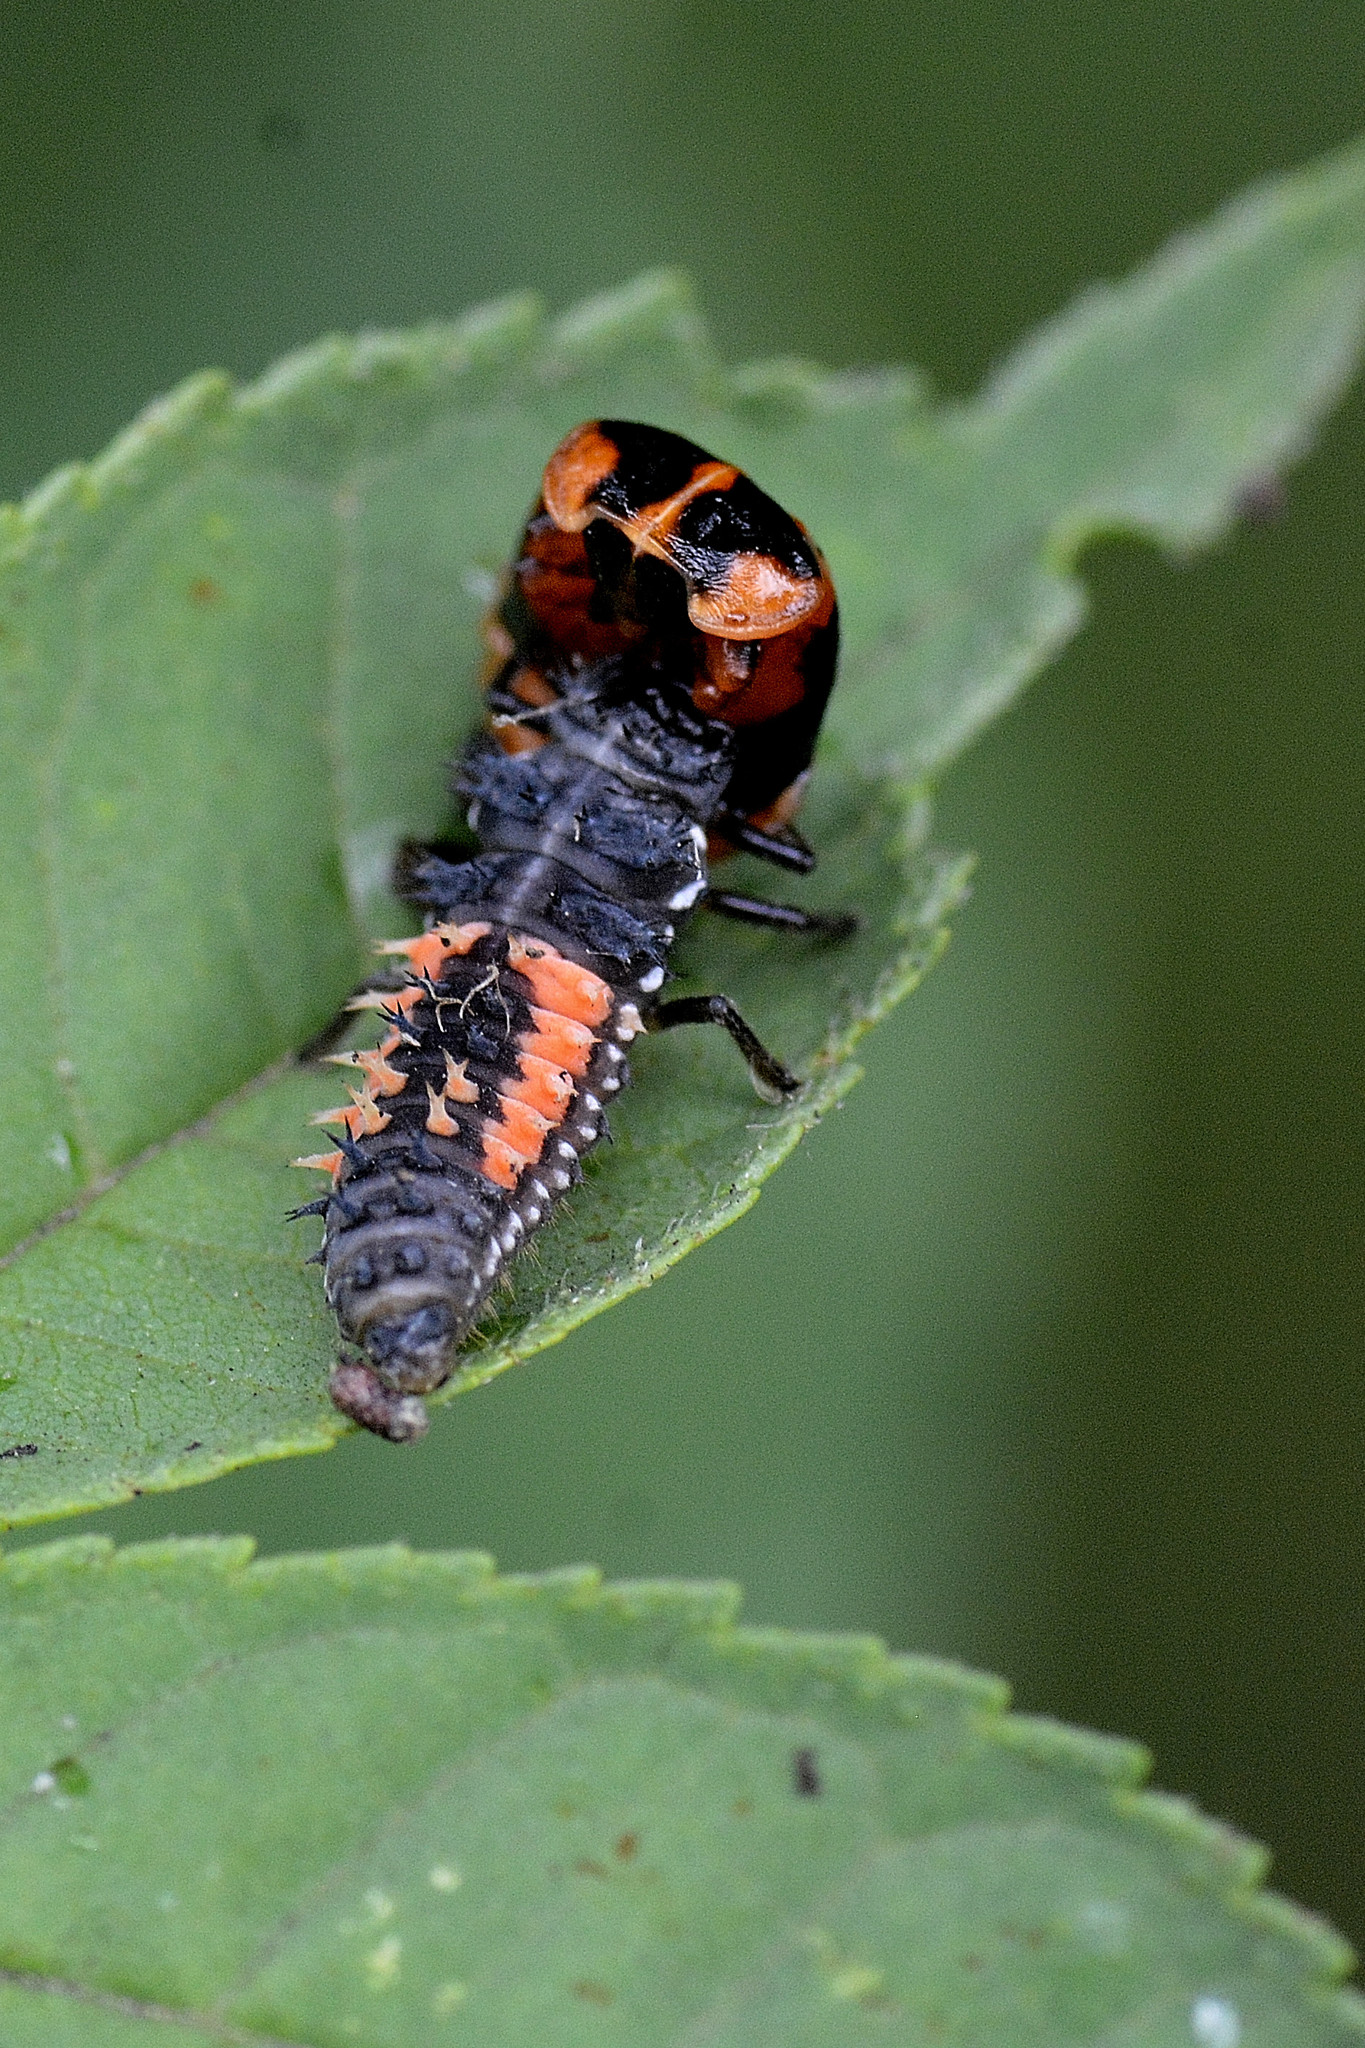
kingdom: Animalia
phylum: Arthropoda
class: Insecta
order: Coleoptera
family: Coccinellidae
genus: Harmonia
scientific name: Harmonia axyridis
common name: Harlequin ladybird
